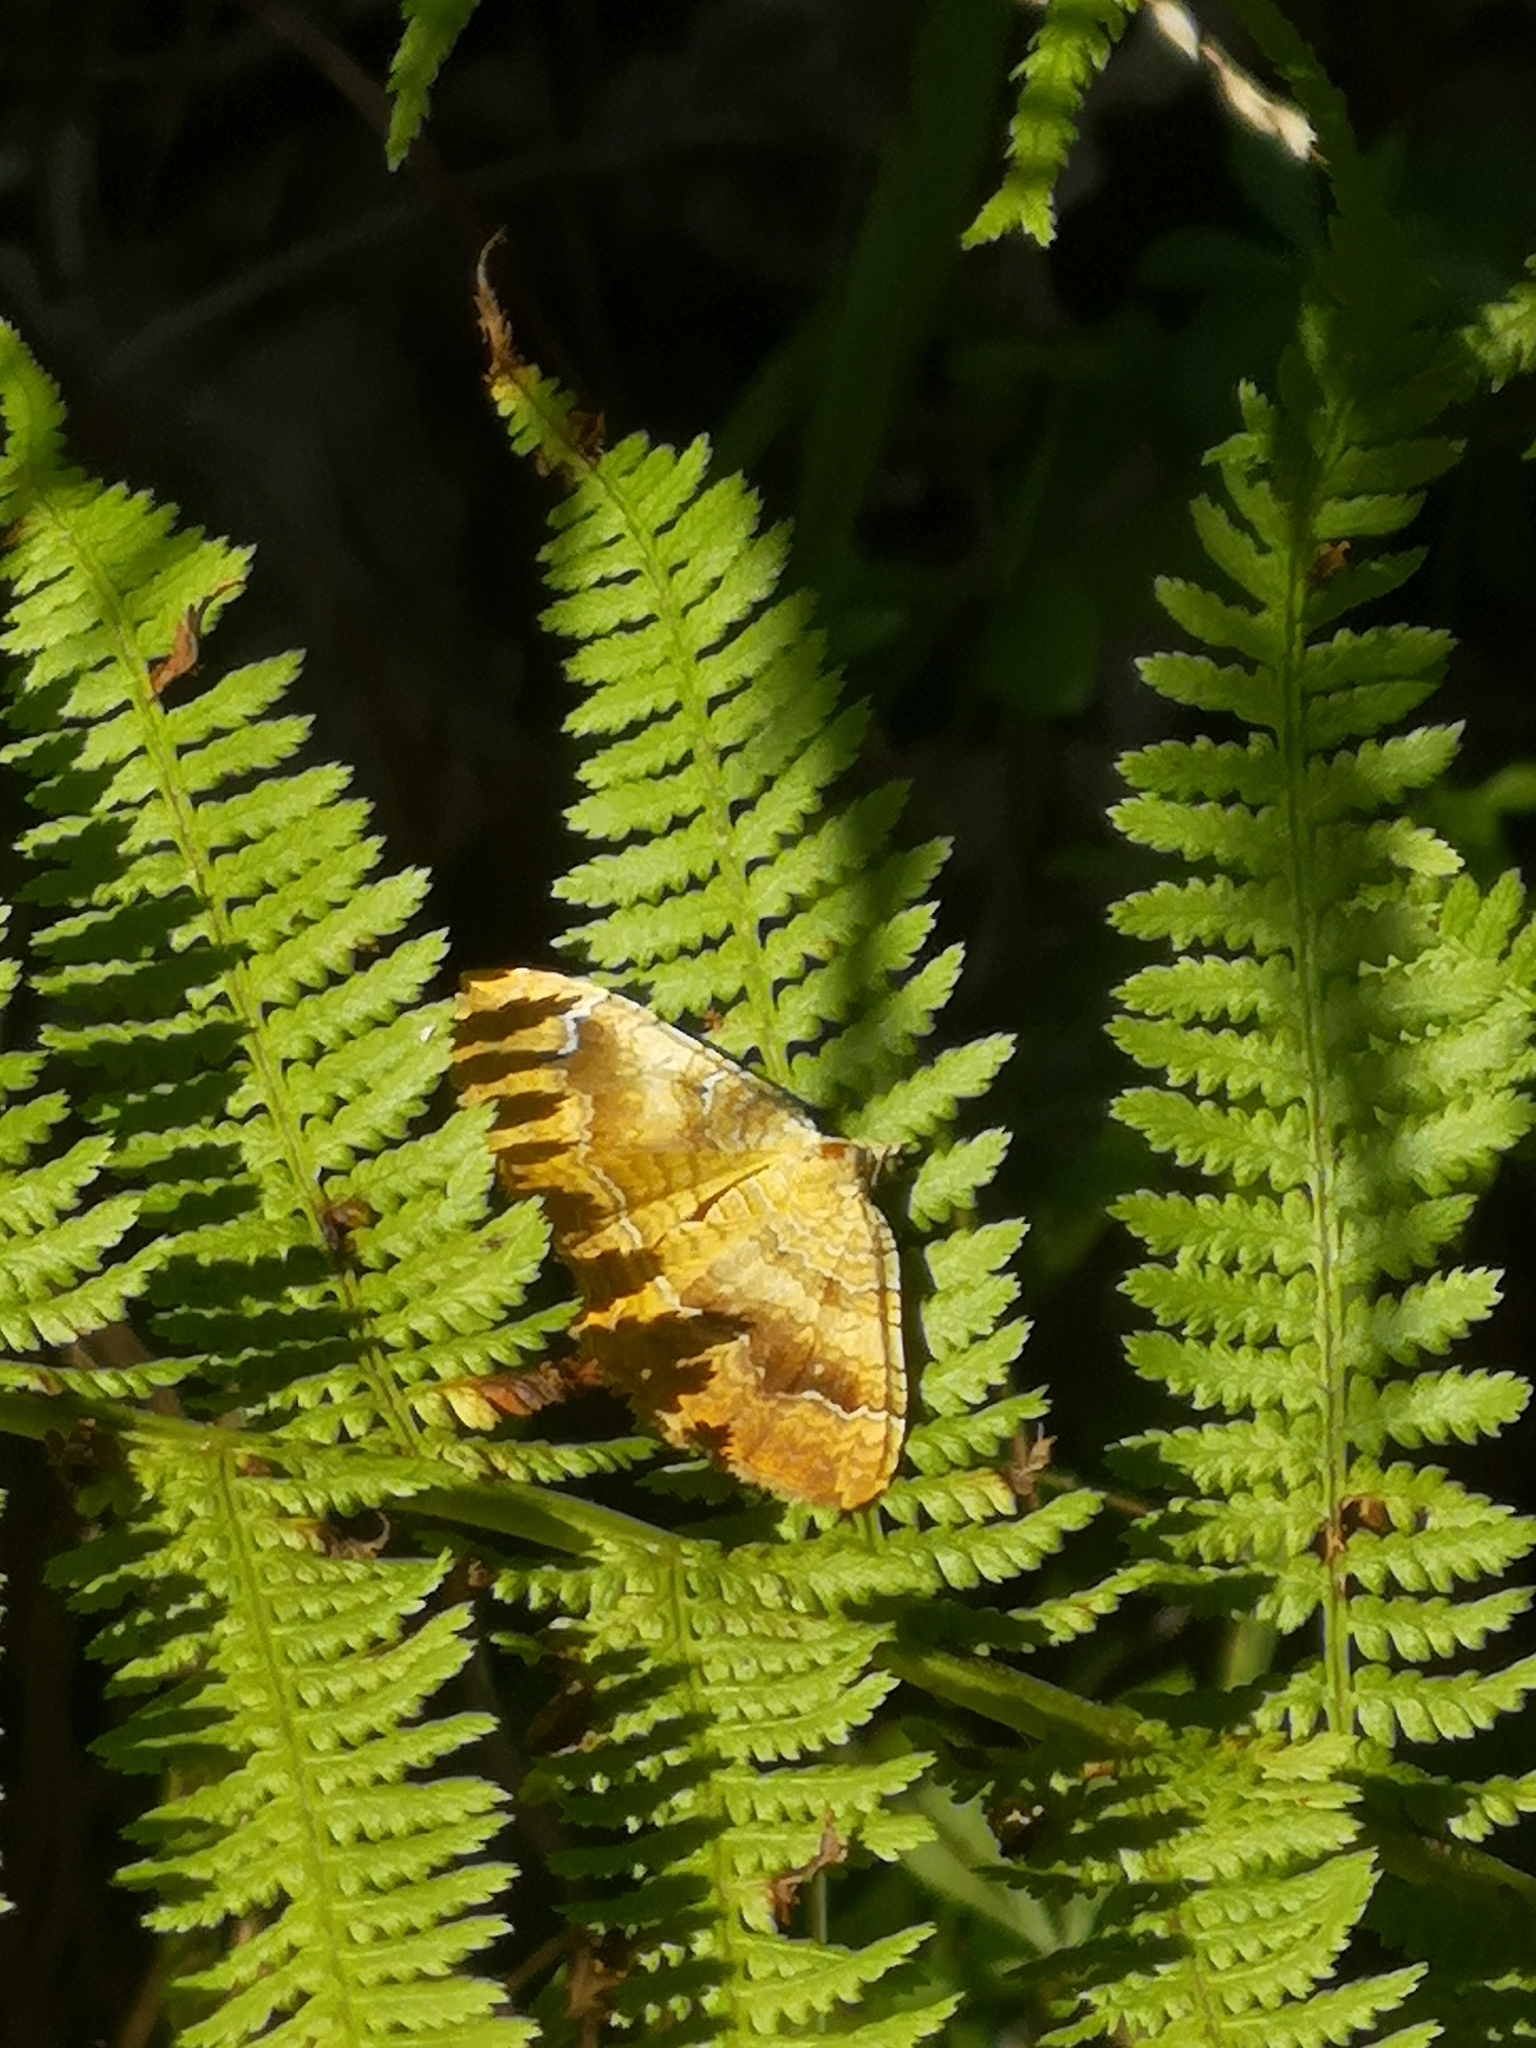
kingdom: Animalia
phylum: Arthropoda
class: Insecta
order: Lepidoptera
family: Geometridae
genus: Camptogramma
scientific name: Camptogramma bilineata
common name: Yellow shell
